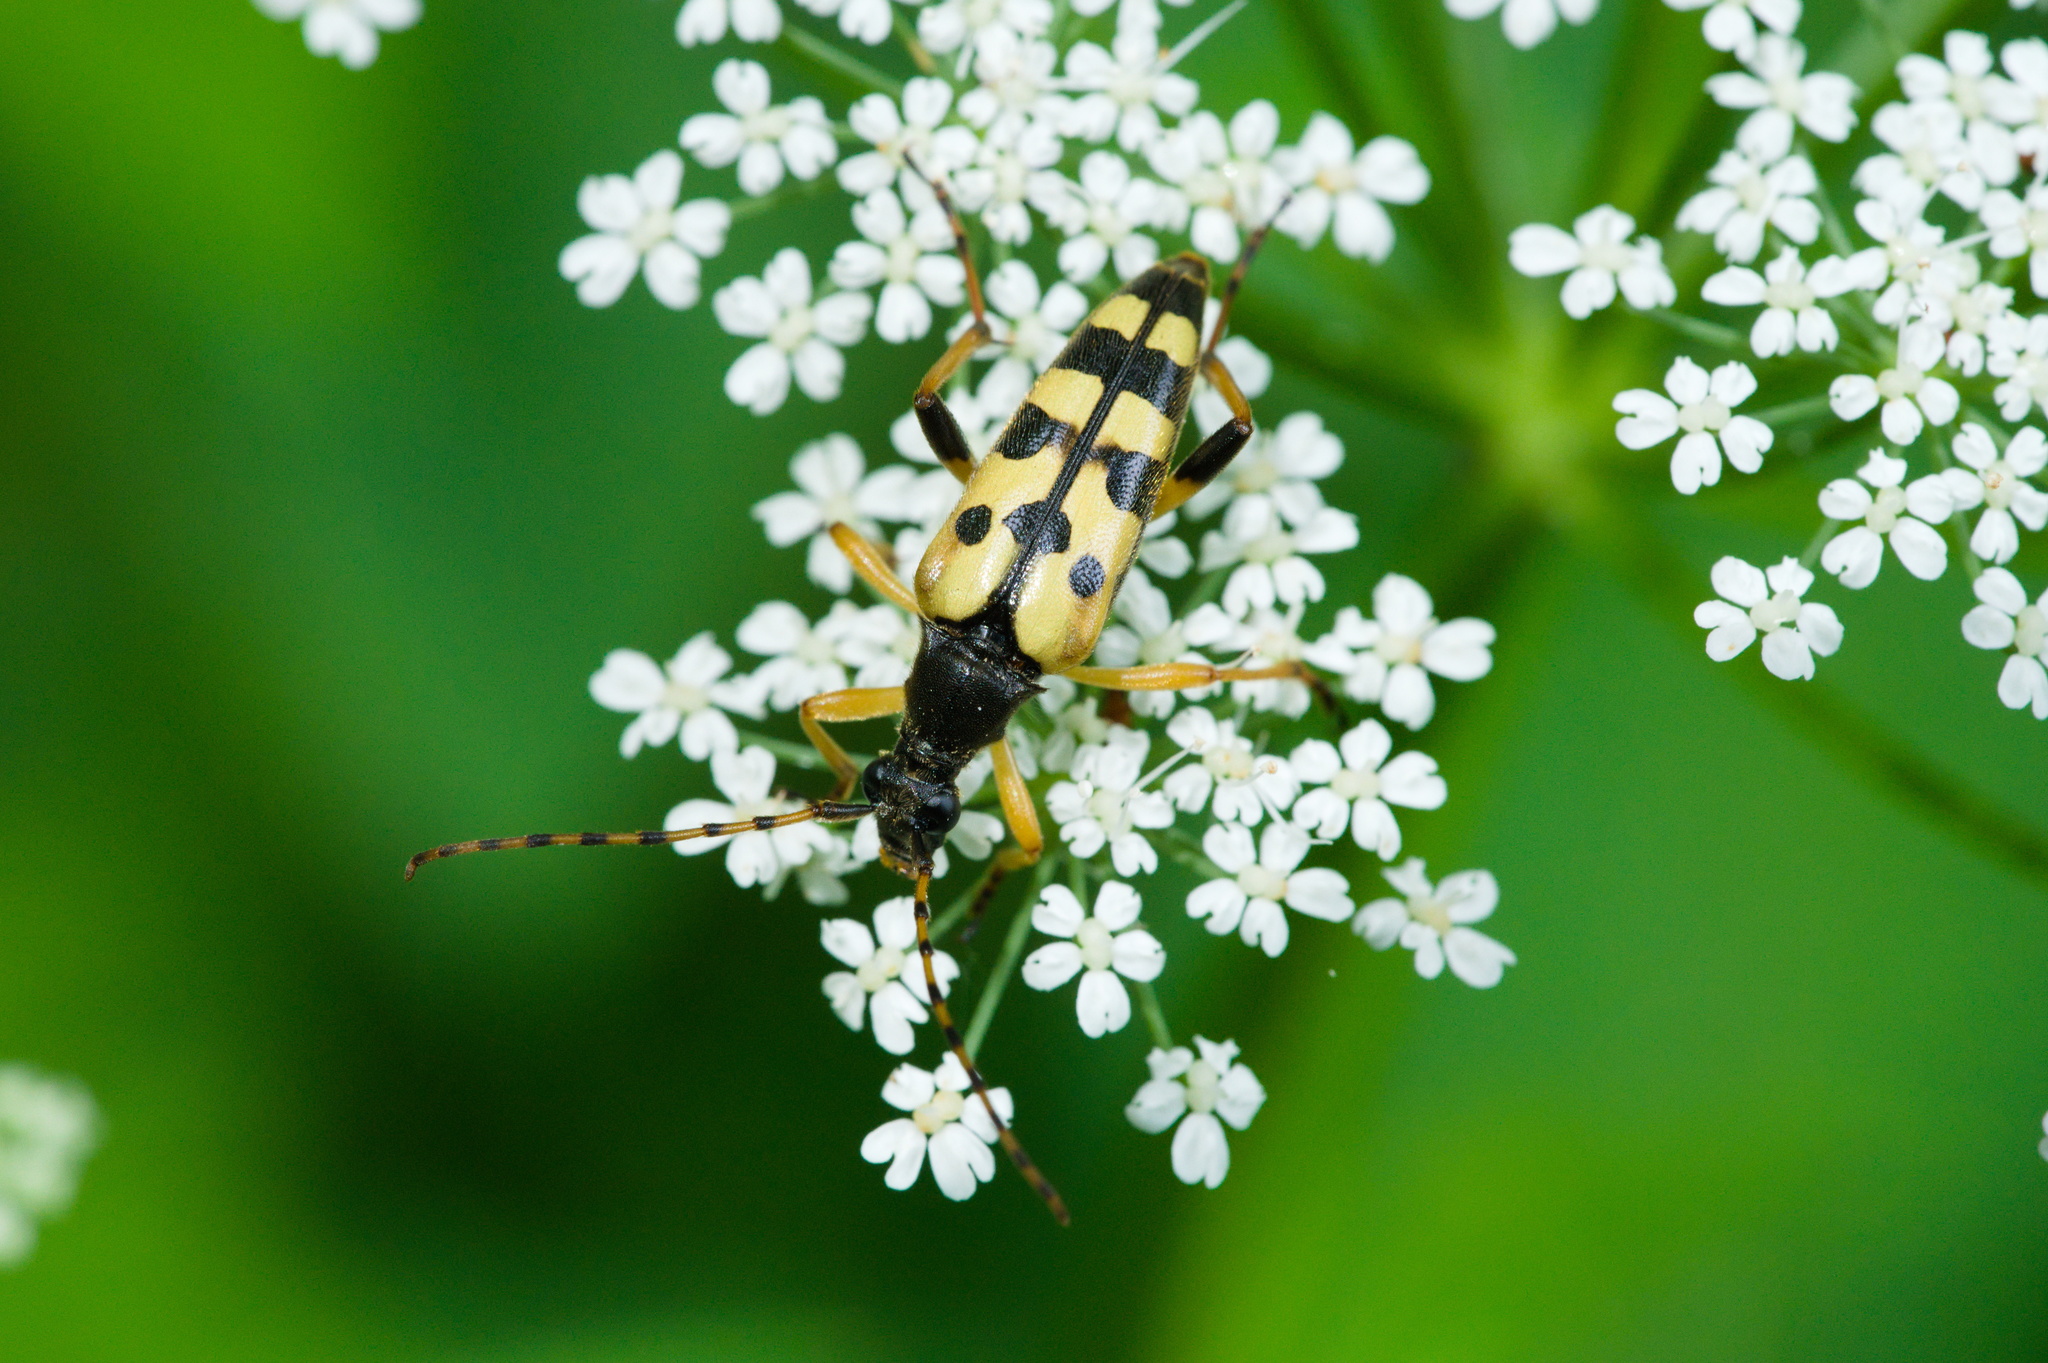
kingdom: Animalia
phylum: Arthropoda
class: Insecta
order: Coleoptera
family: Cerambycidae
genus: Rutpela
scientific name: Rutpela maculata
